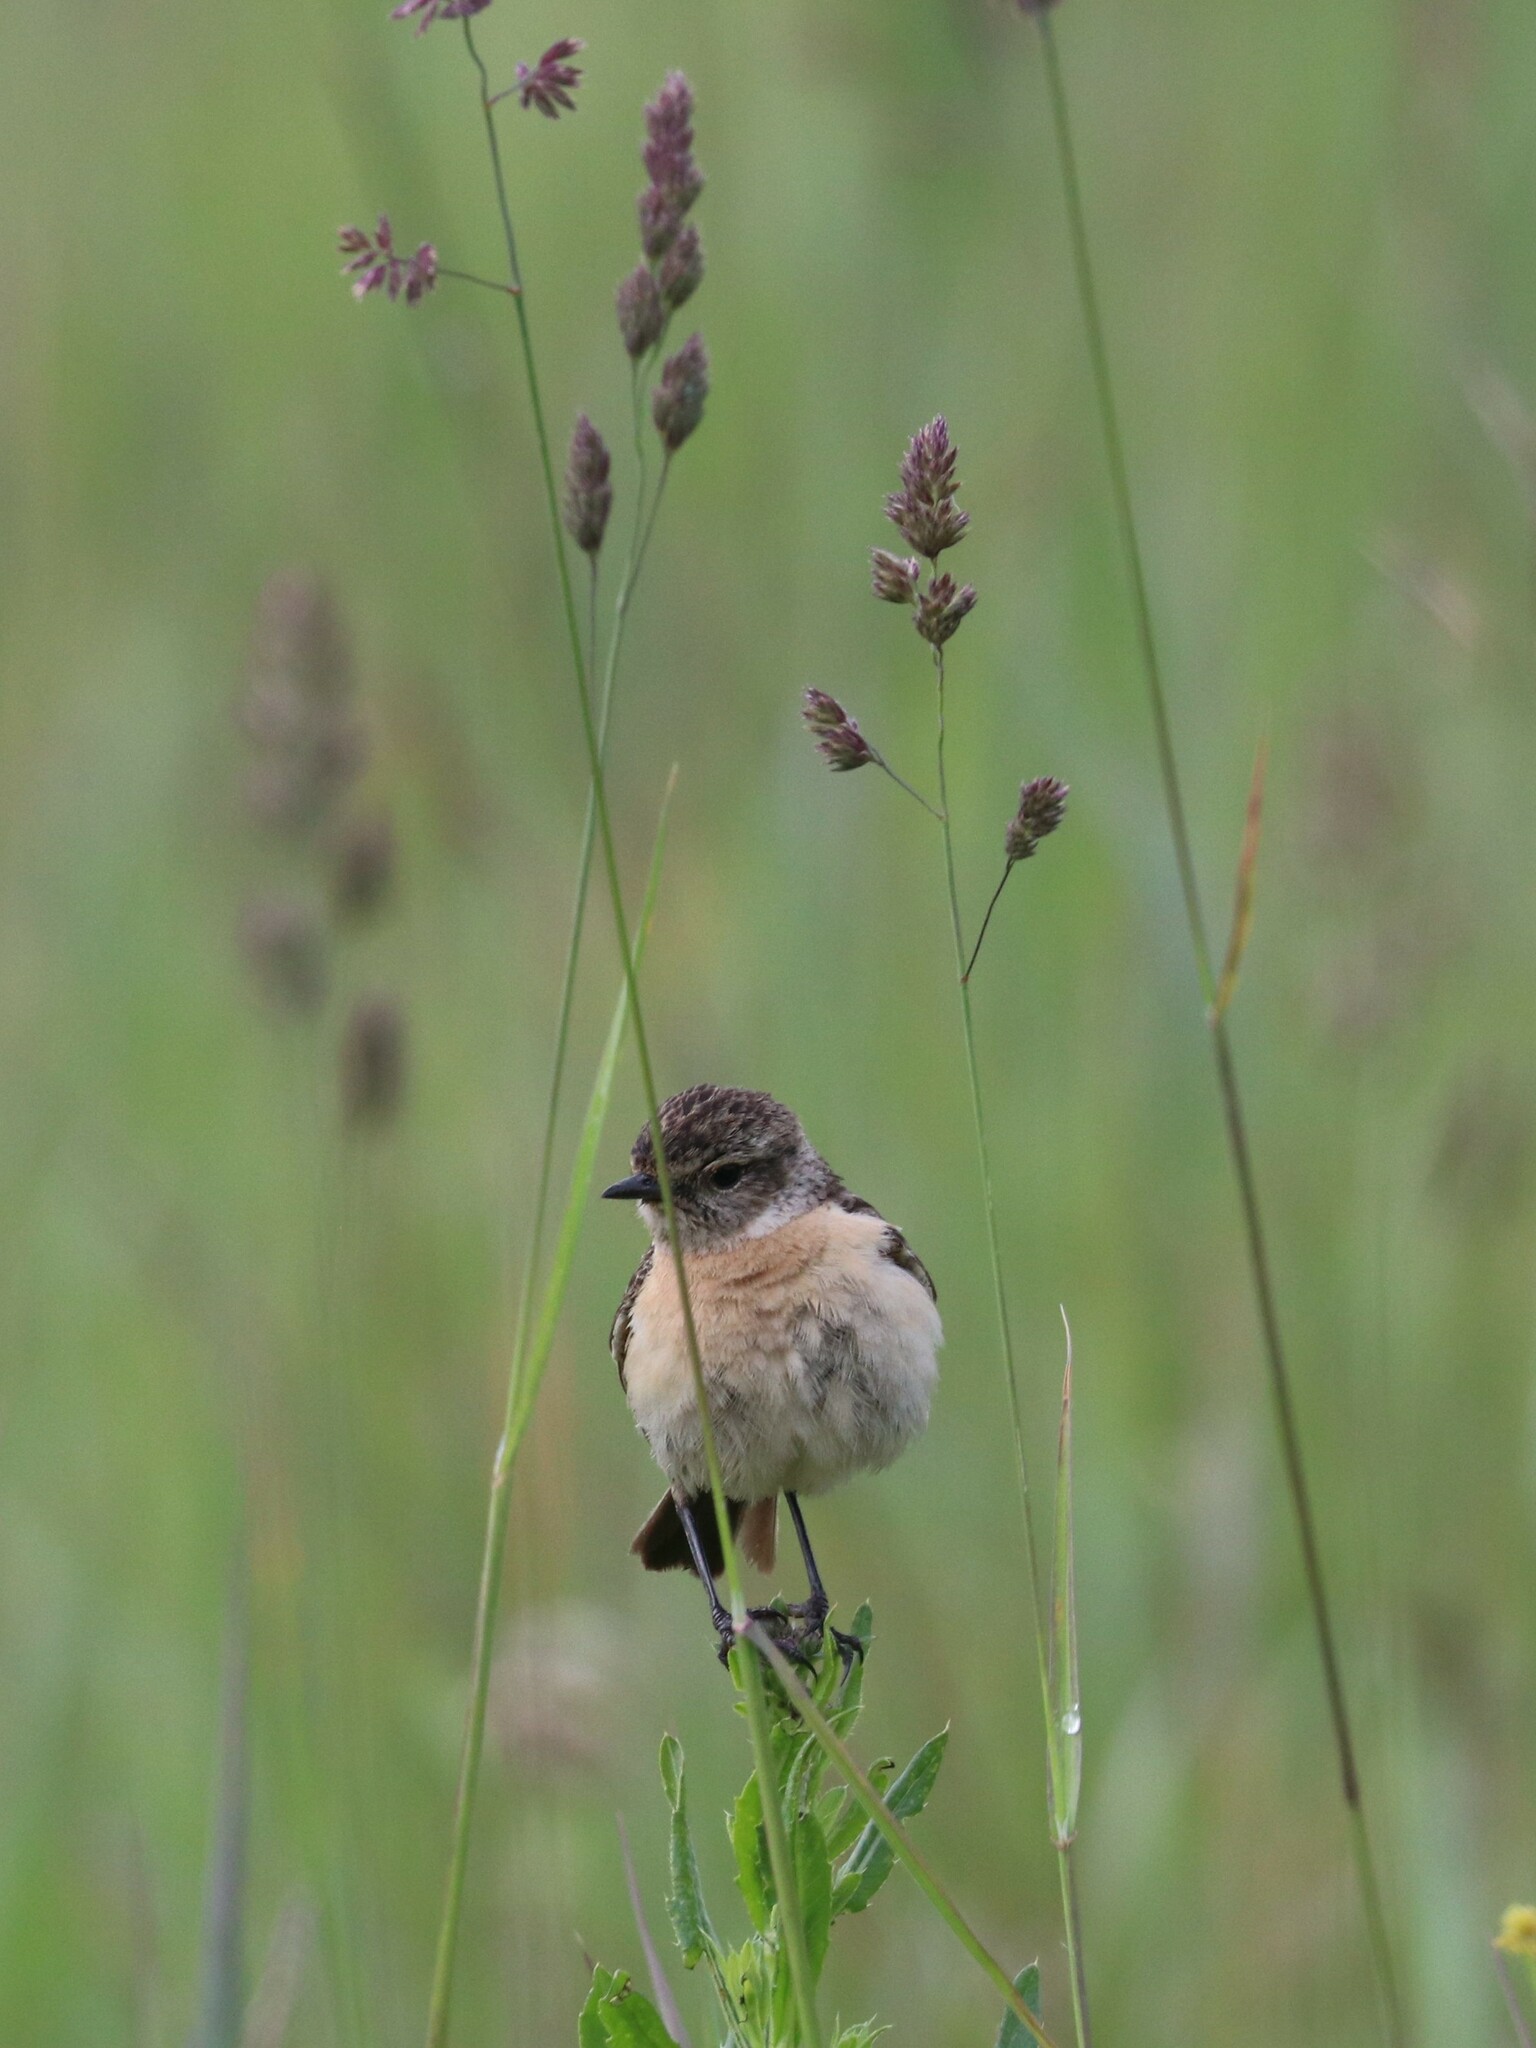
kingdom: Animalia
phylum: Chordata
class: Aves
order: Passeriformes
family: Muscicapidae
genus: Saxicola
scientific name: Saxicola maurus
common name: Siberian stonechat
